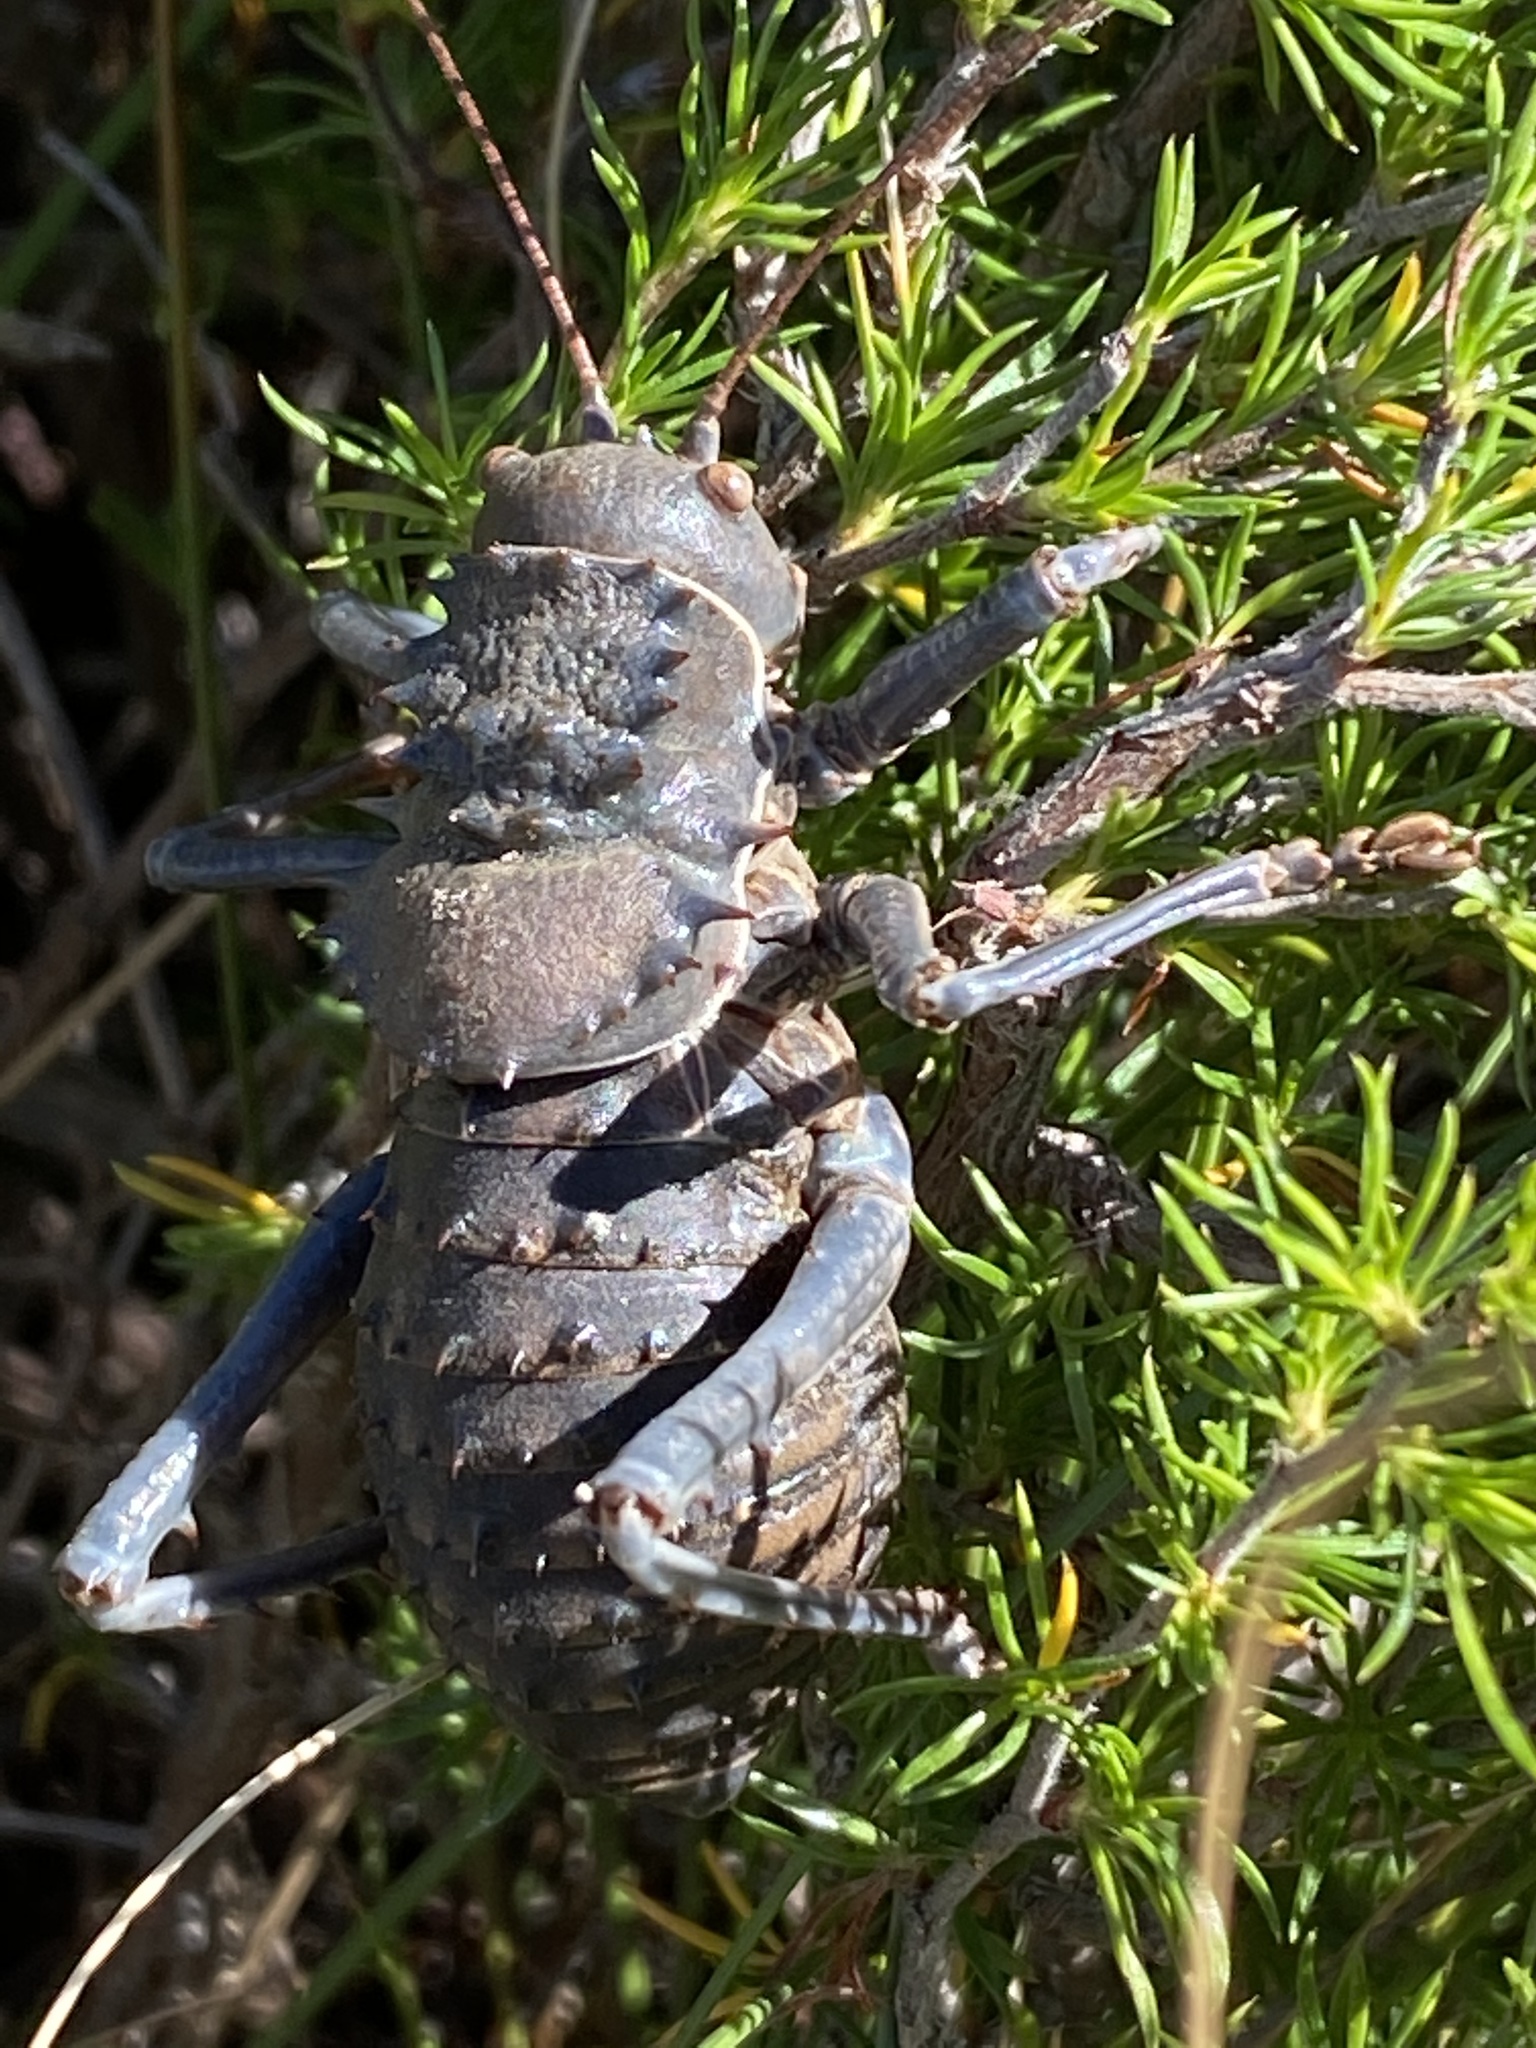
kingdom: Animalia
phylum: Arthropoda
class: Insecta
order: Orthoptera
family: Tettigoniidae
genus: Hetrodes
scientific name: Hetrodes pupus
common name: Koringkriek
